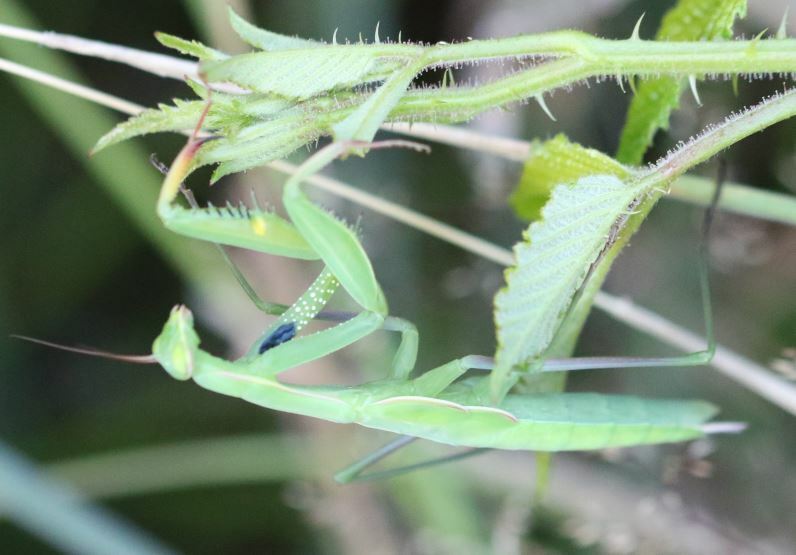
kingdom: Animalia
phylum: Arthropoda
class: Insecta
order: Mantodea
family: Mantidae
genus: Mantis
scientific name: Mantis religiosa
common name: Praying mantis
